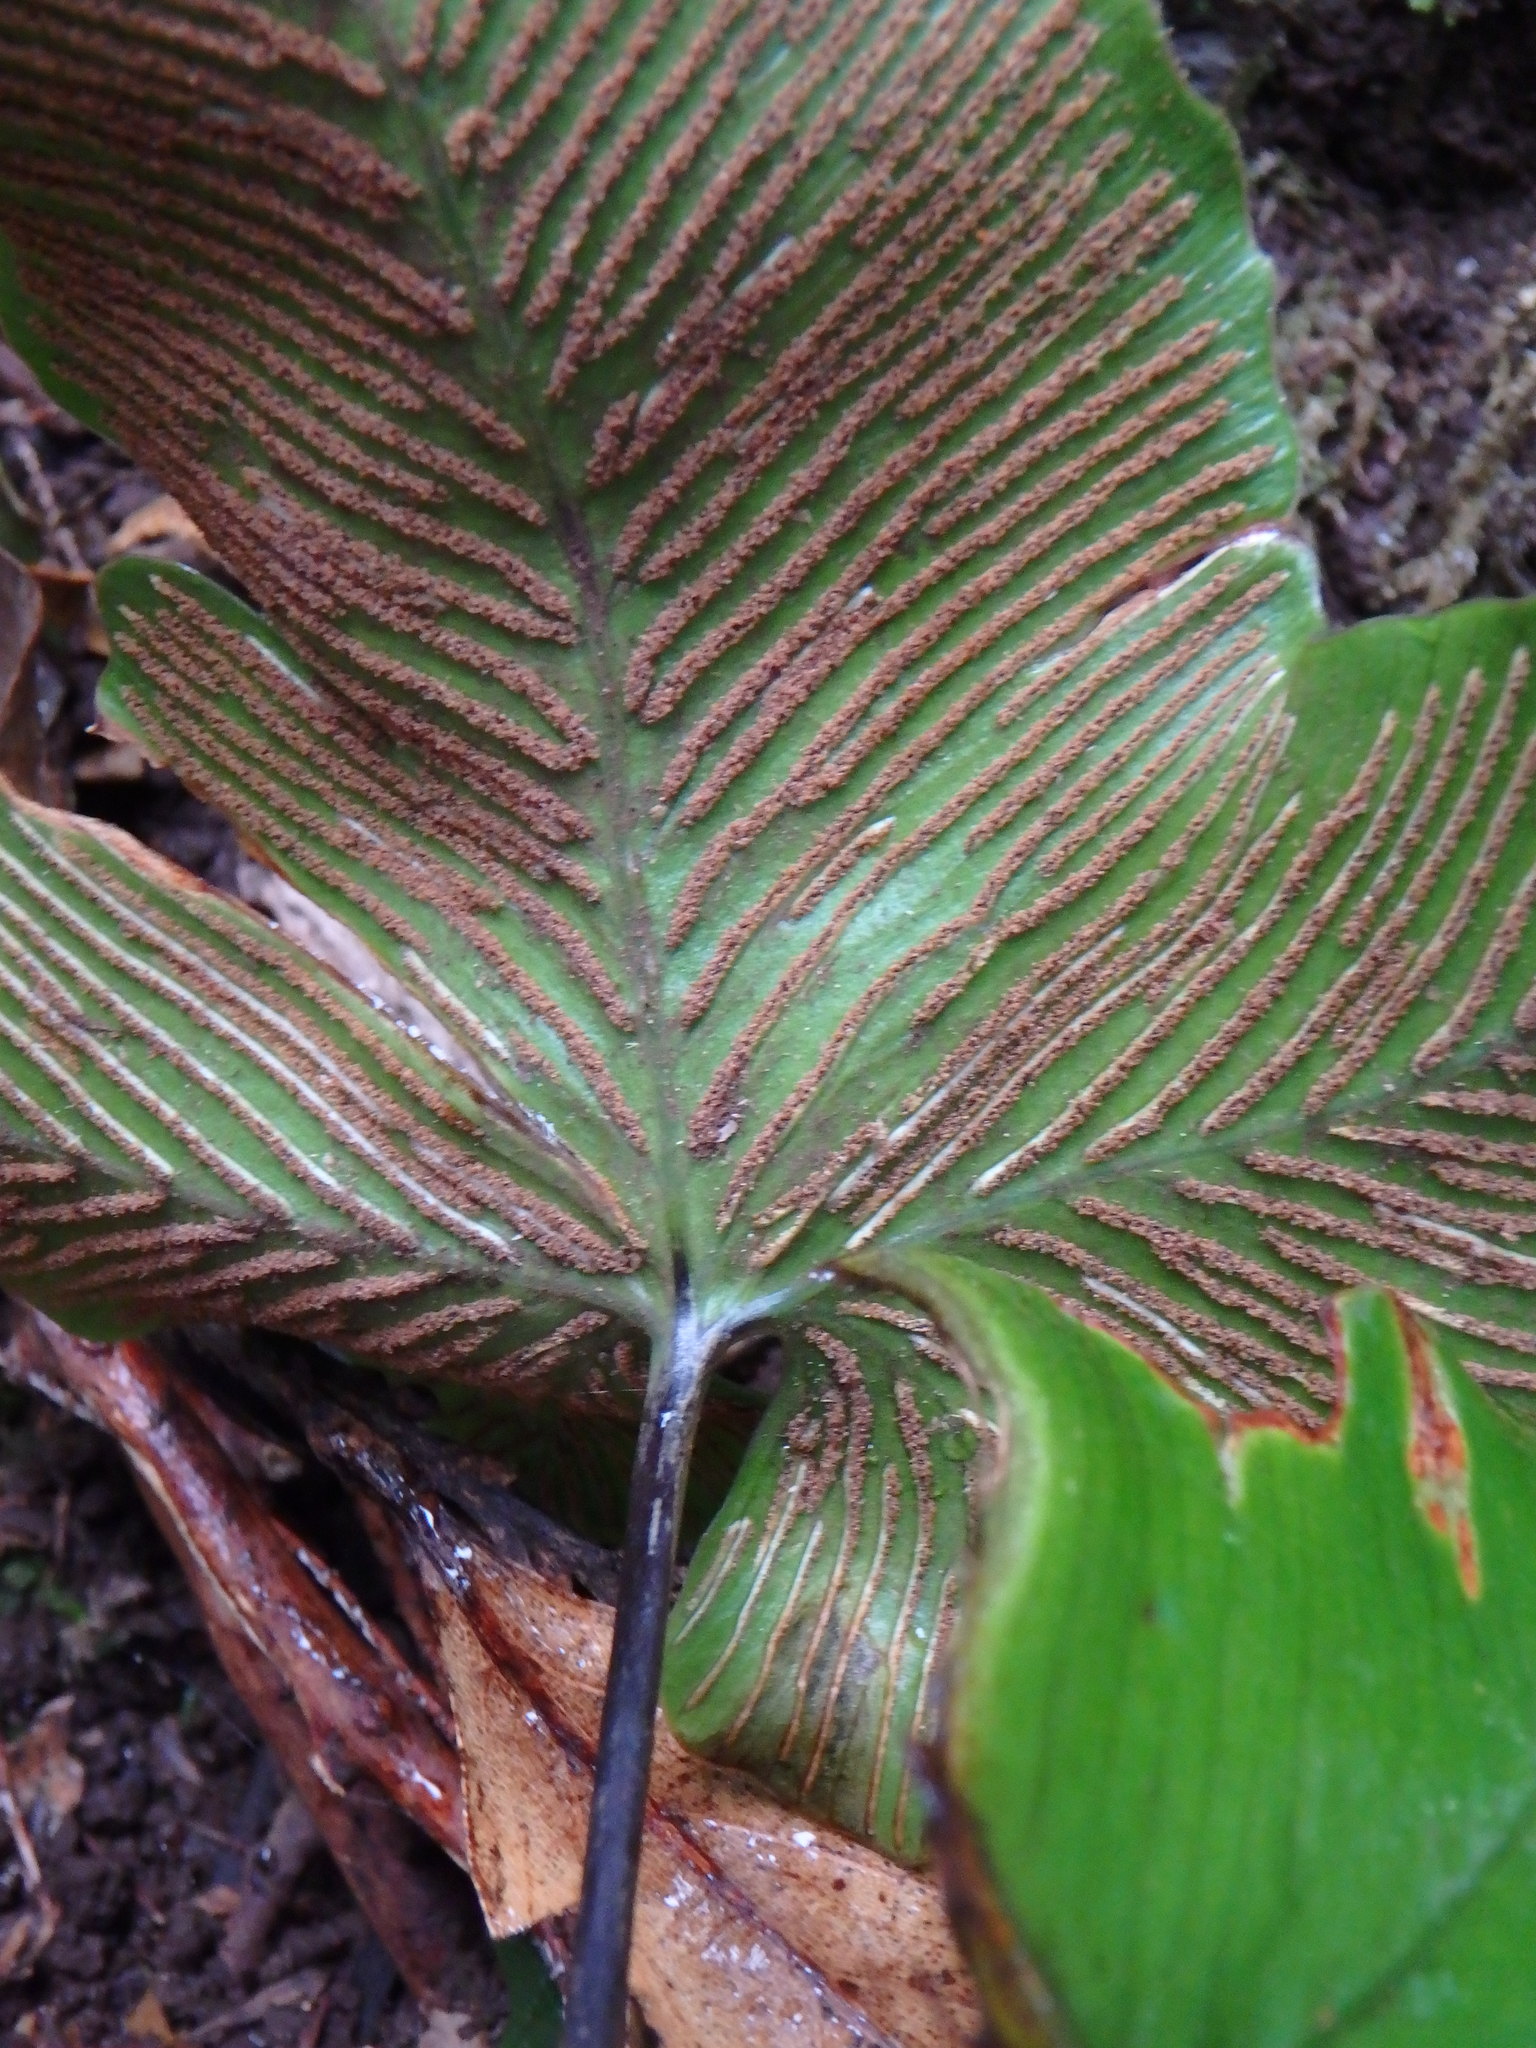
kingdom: Plantae
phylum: Tracheophyta
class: Polypodiopsida
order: Polypodiales
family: Aspleniaceae
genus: Asplenium
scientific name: Asplenium hemionitis
